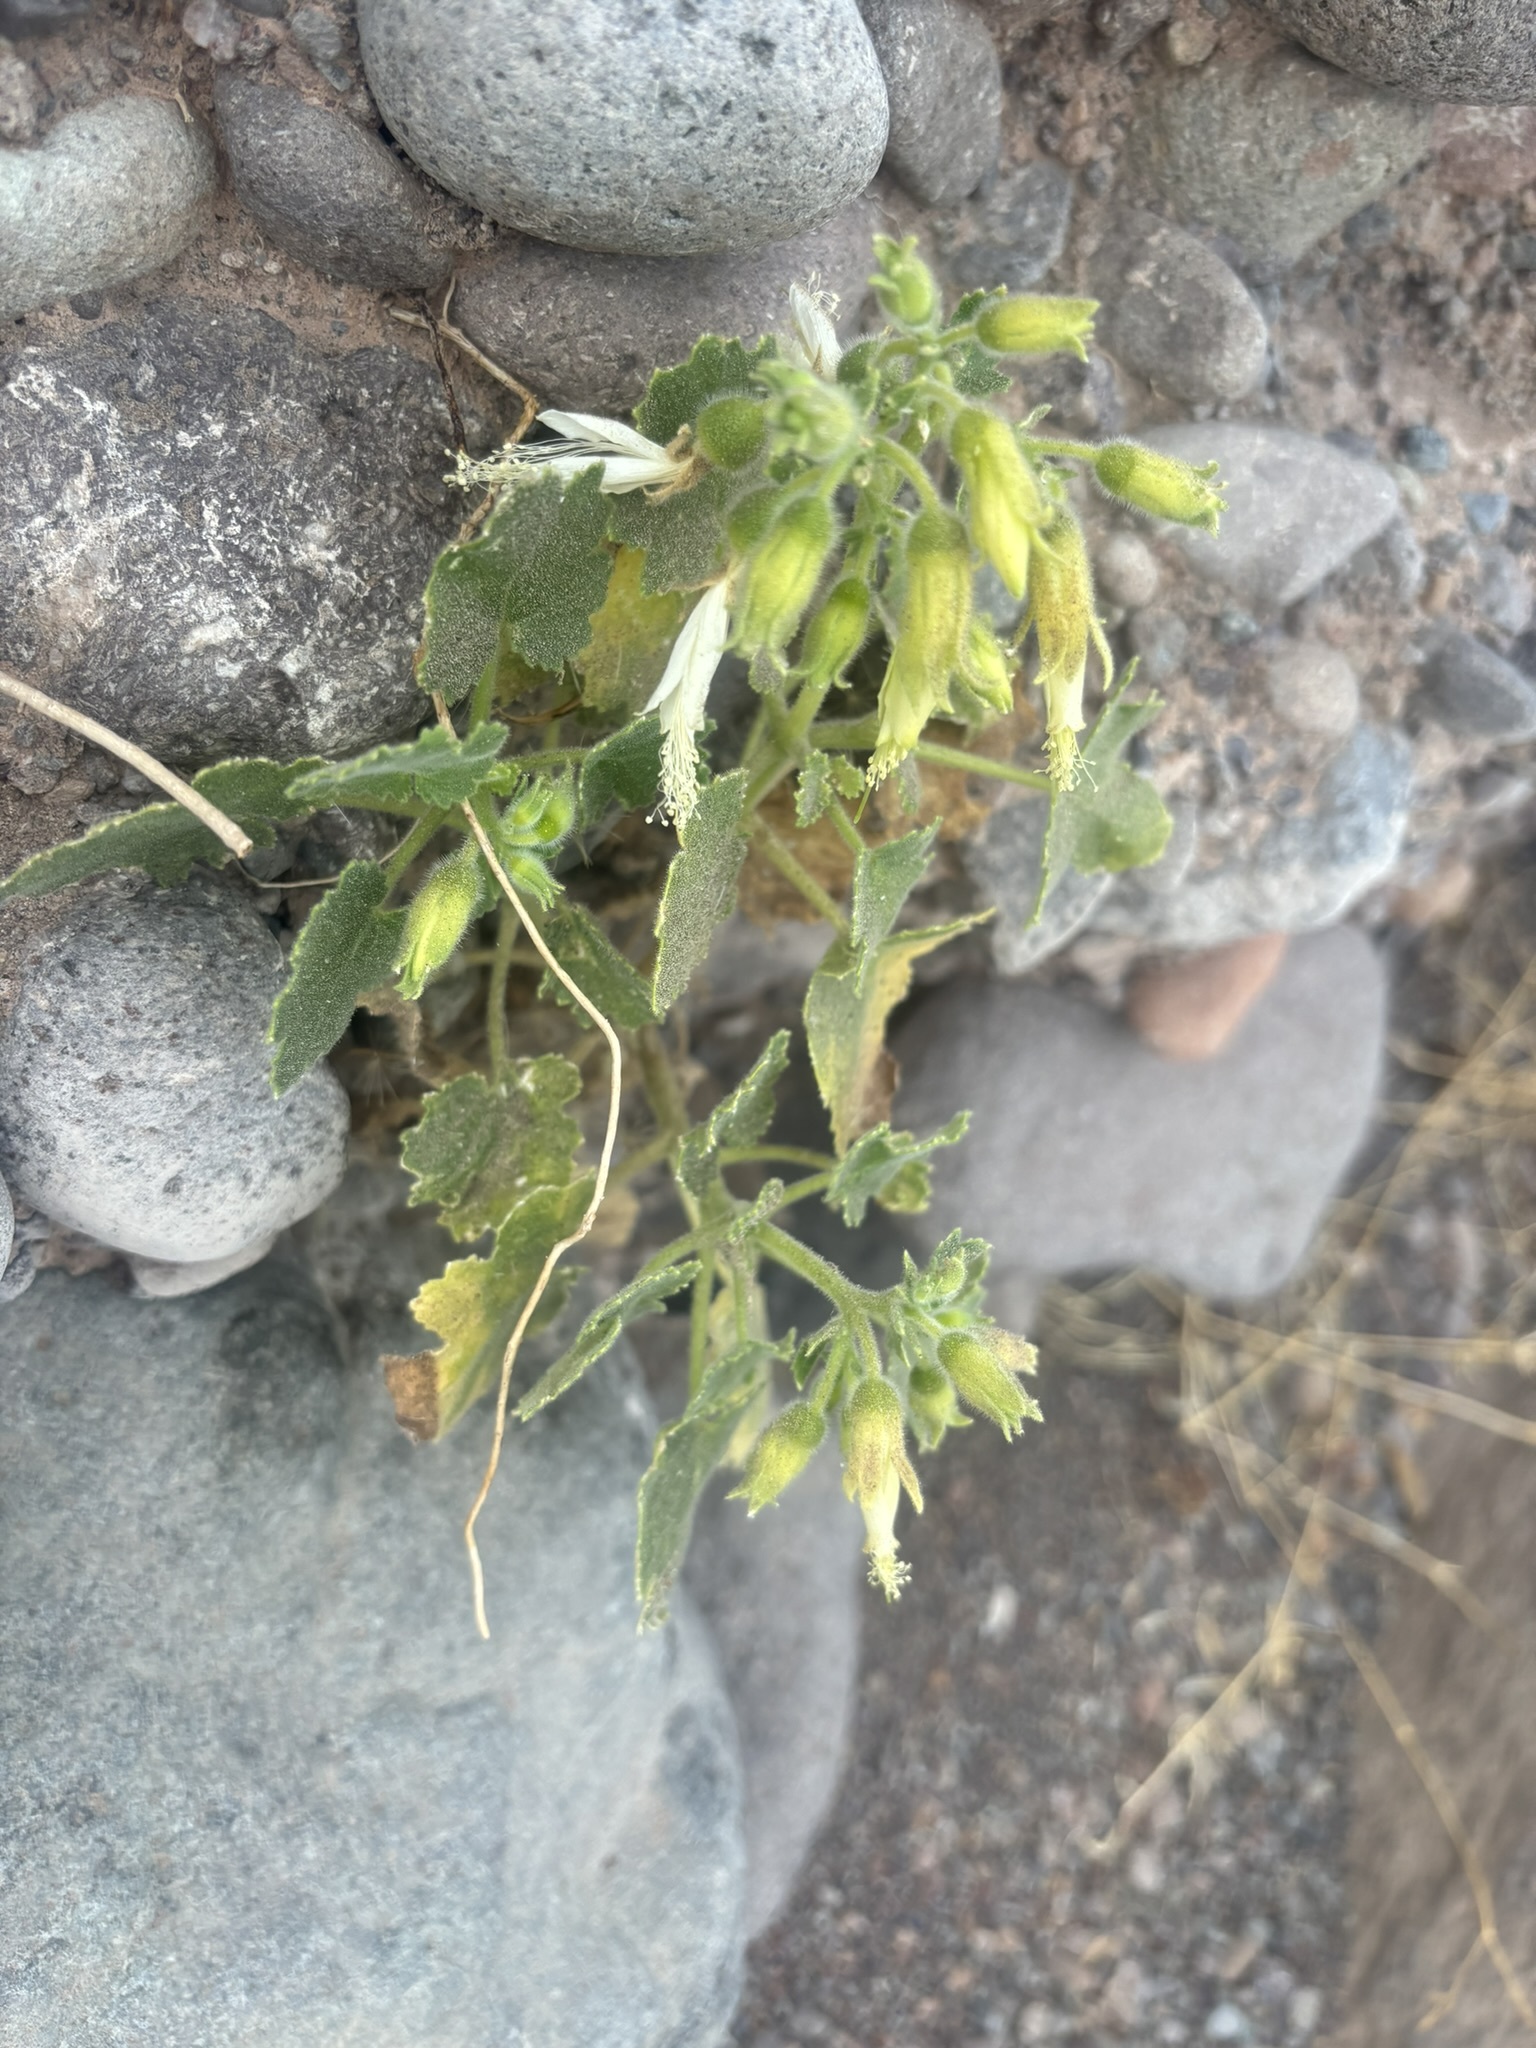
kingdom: Plantae
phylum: Tracheophyta
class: Magnoliopsida
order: Cornales
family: Loasaceae
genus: Eucnide
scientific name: Eucnide cordata
